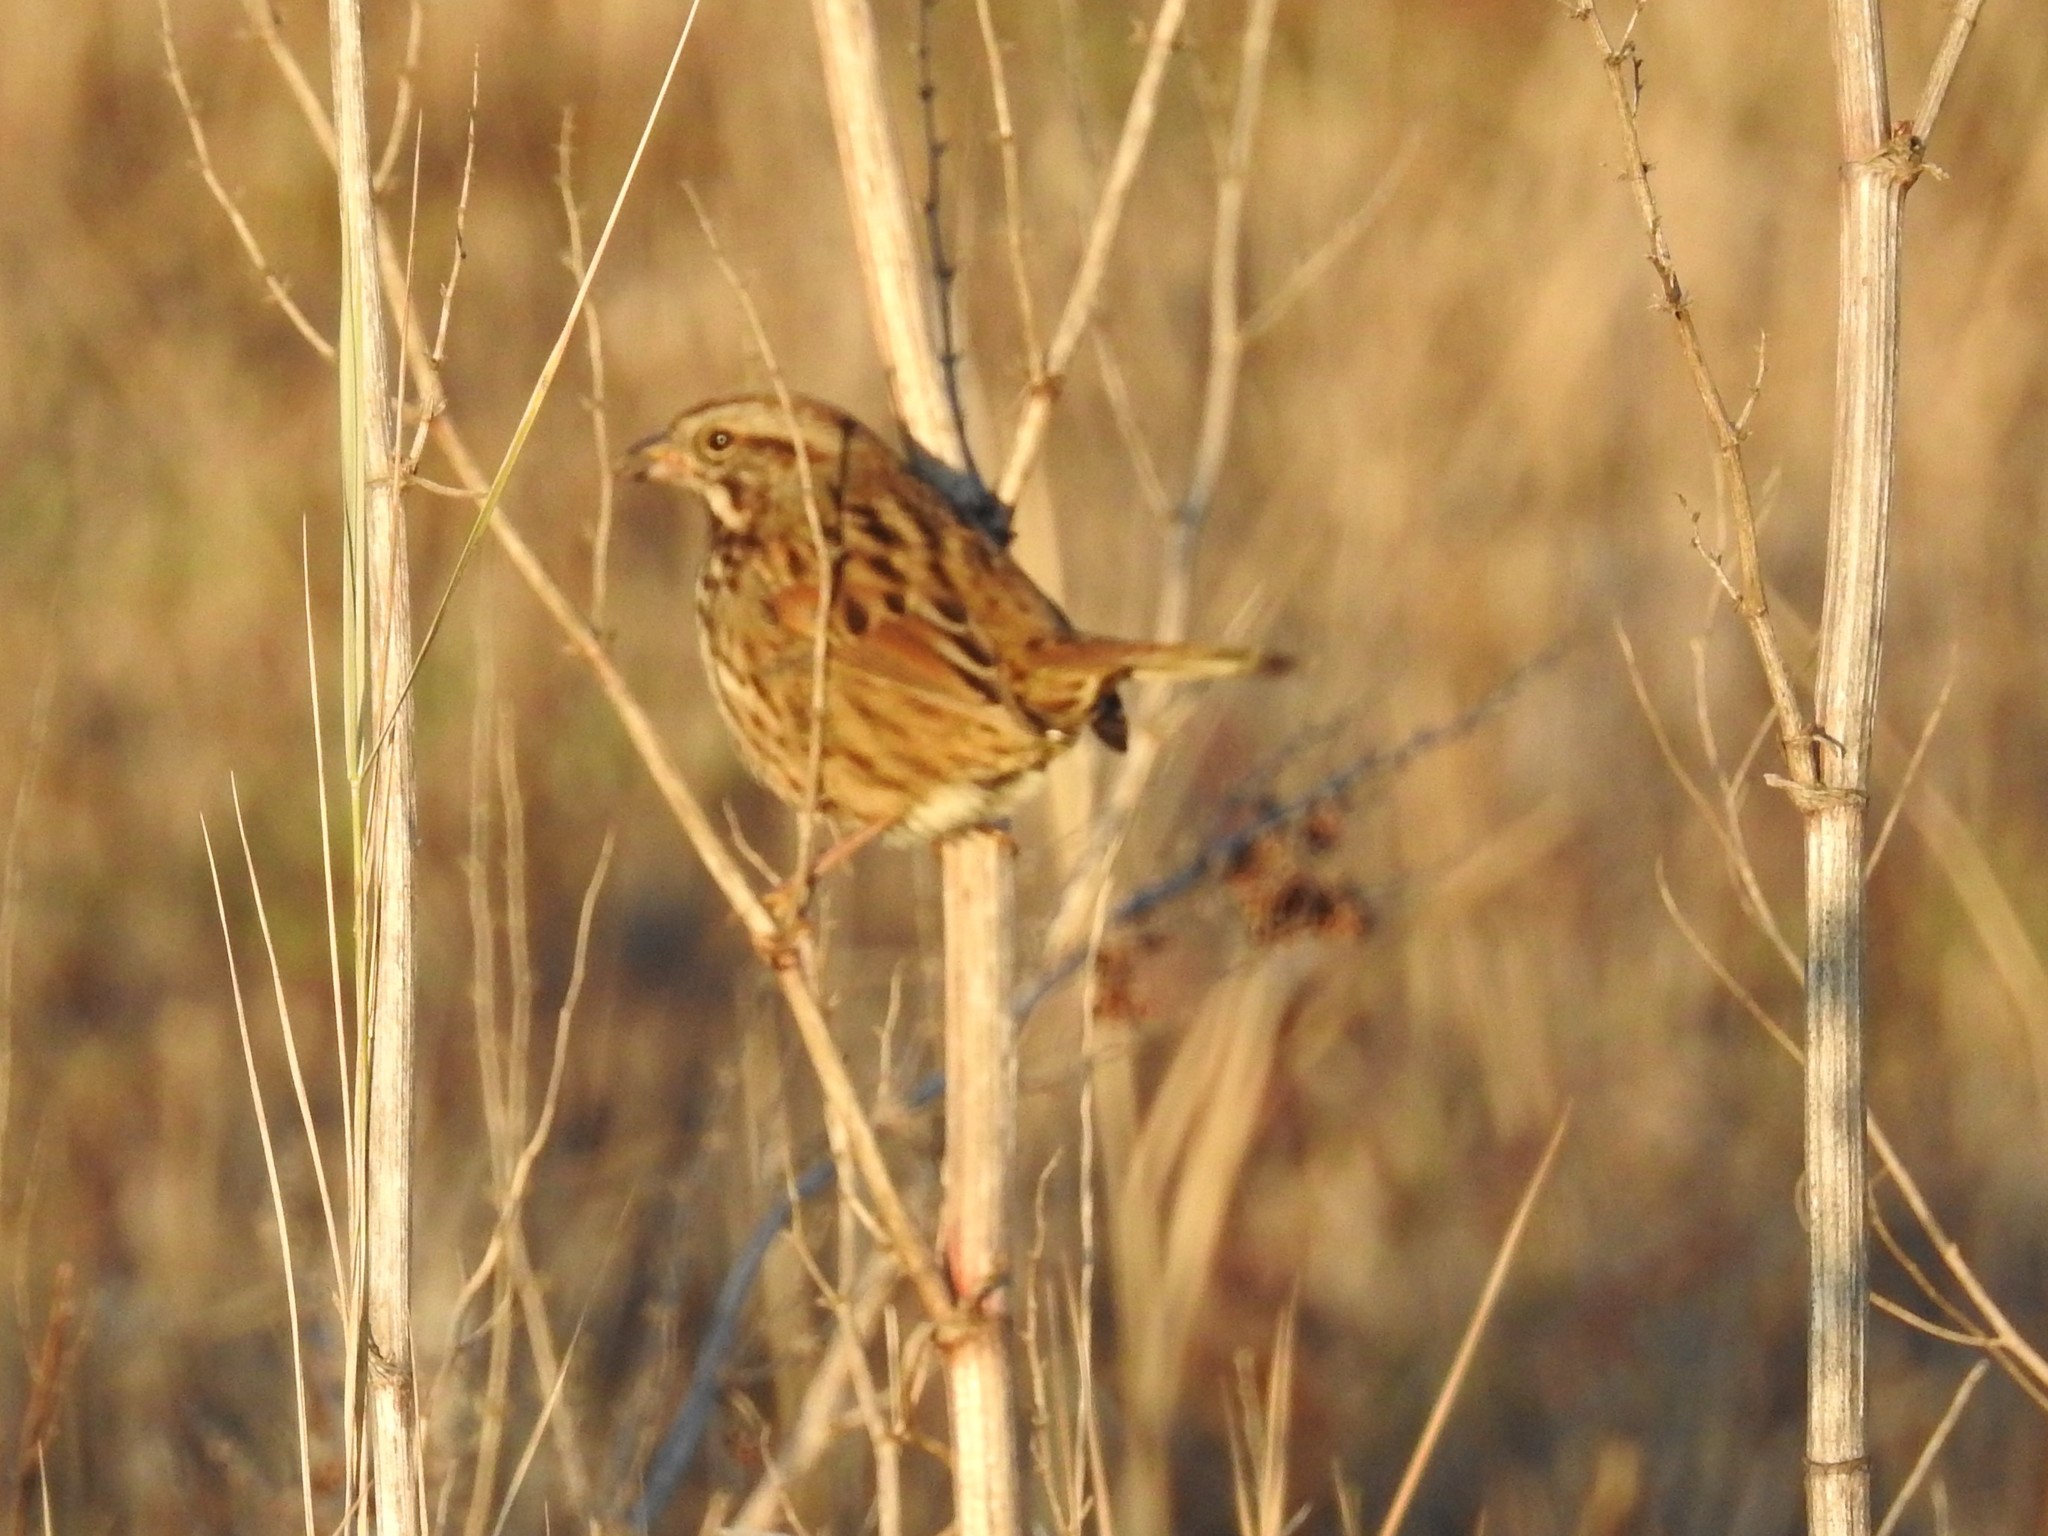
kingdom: Animalia
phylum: Chordata
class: Aves
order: Passeriformes
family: Passerellidae
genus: Melospiza
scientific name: Melospiza melodia
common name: Song sparrow
